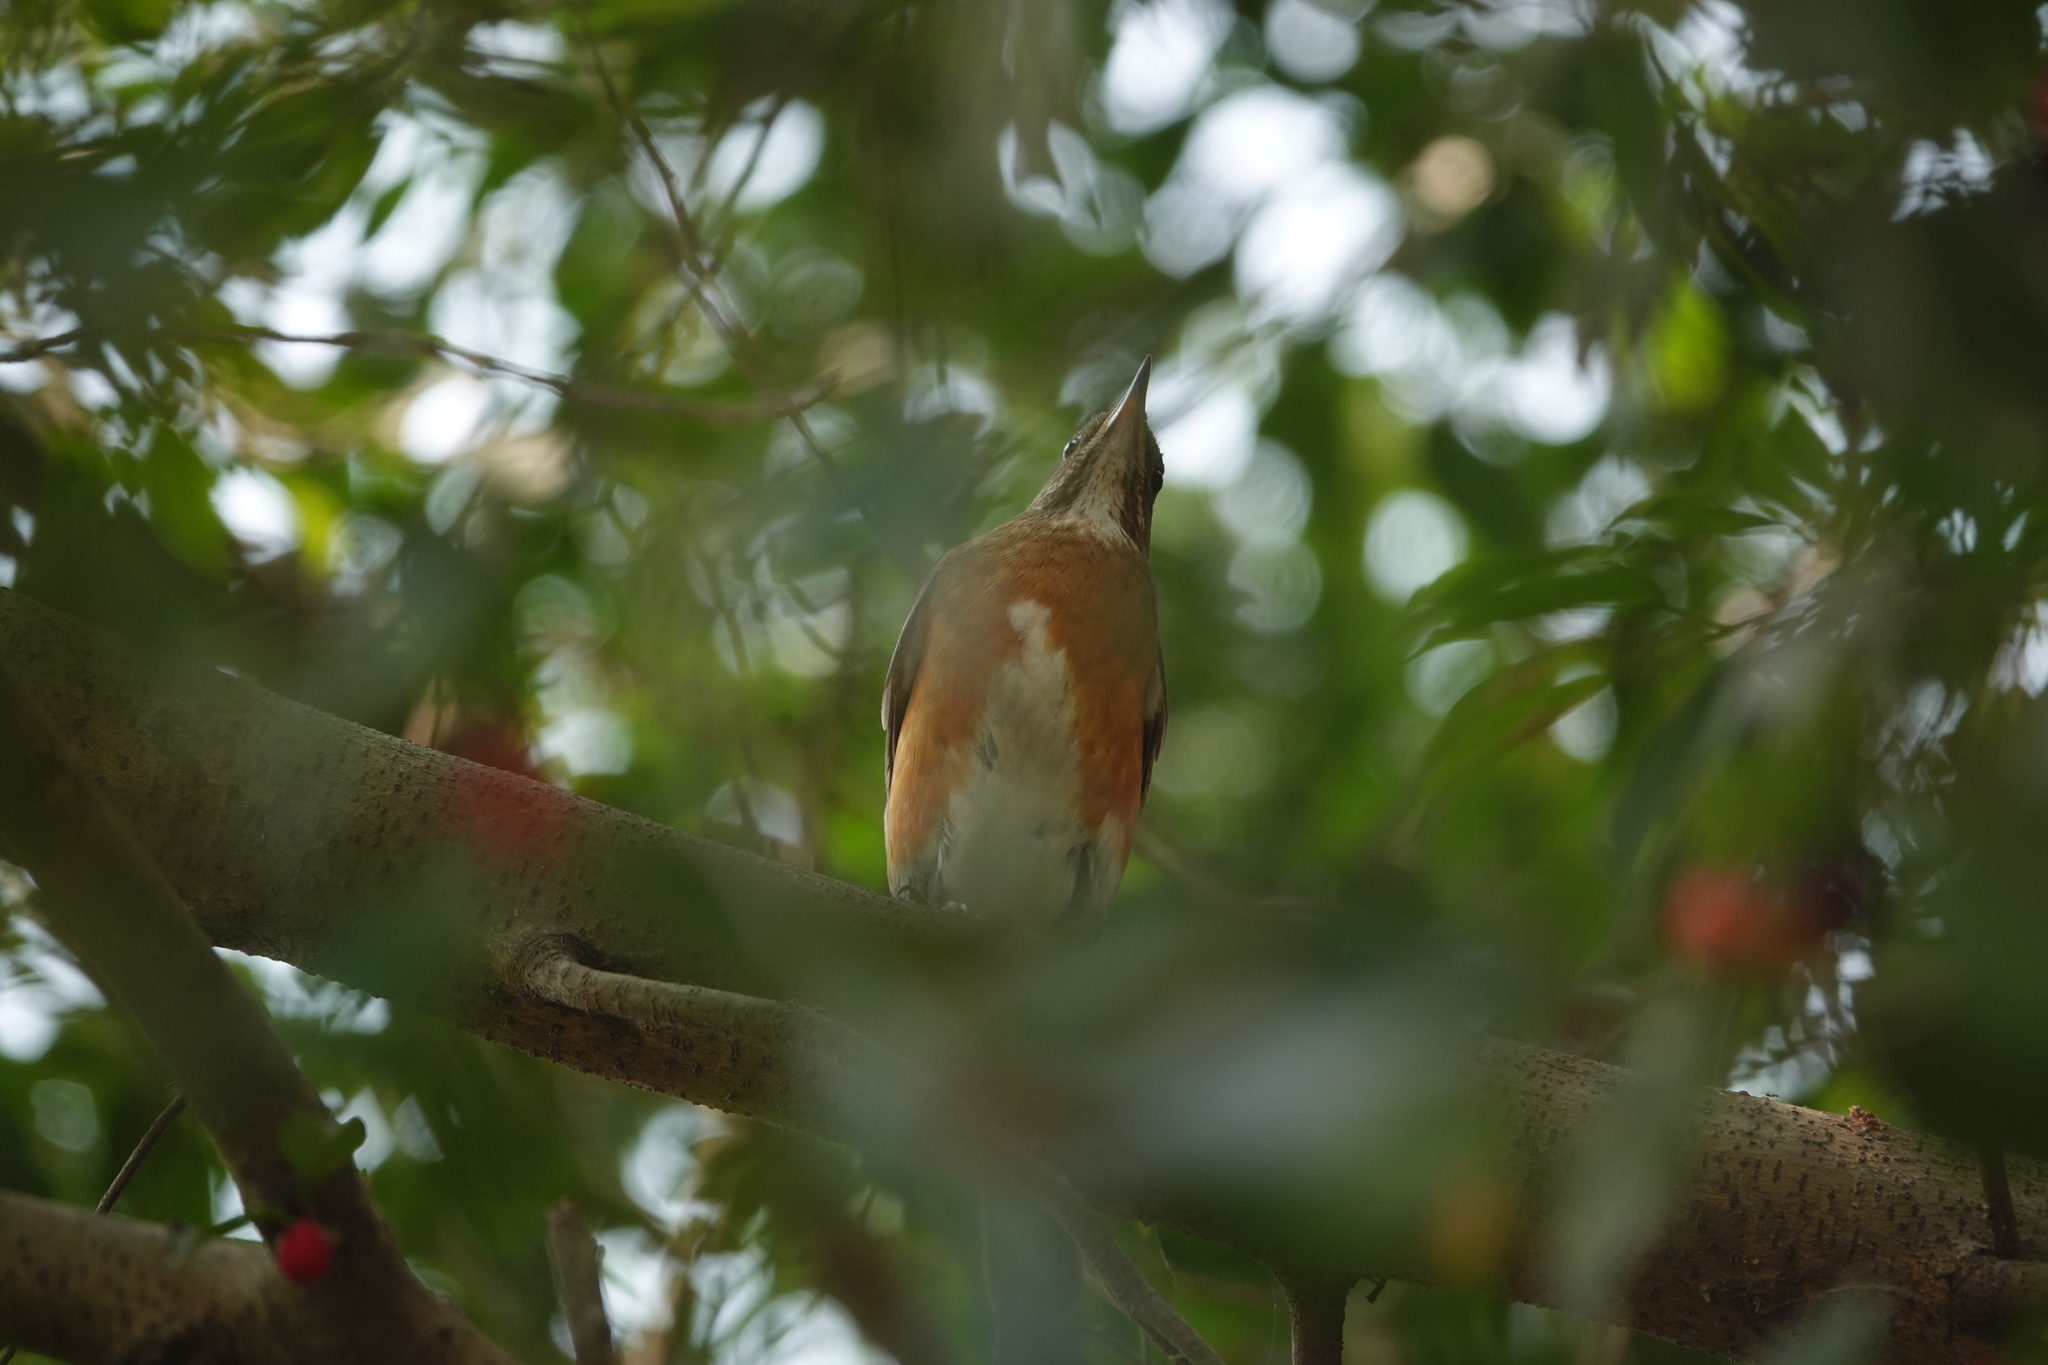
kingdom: Animalia
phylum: Chordata
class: Aves
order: Passeriformes
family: Turdidae
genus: Turdus
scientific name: Turdus chrysolaus
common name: Brown-headed thrush
